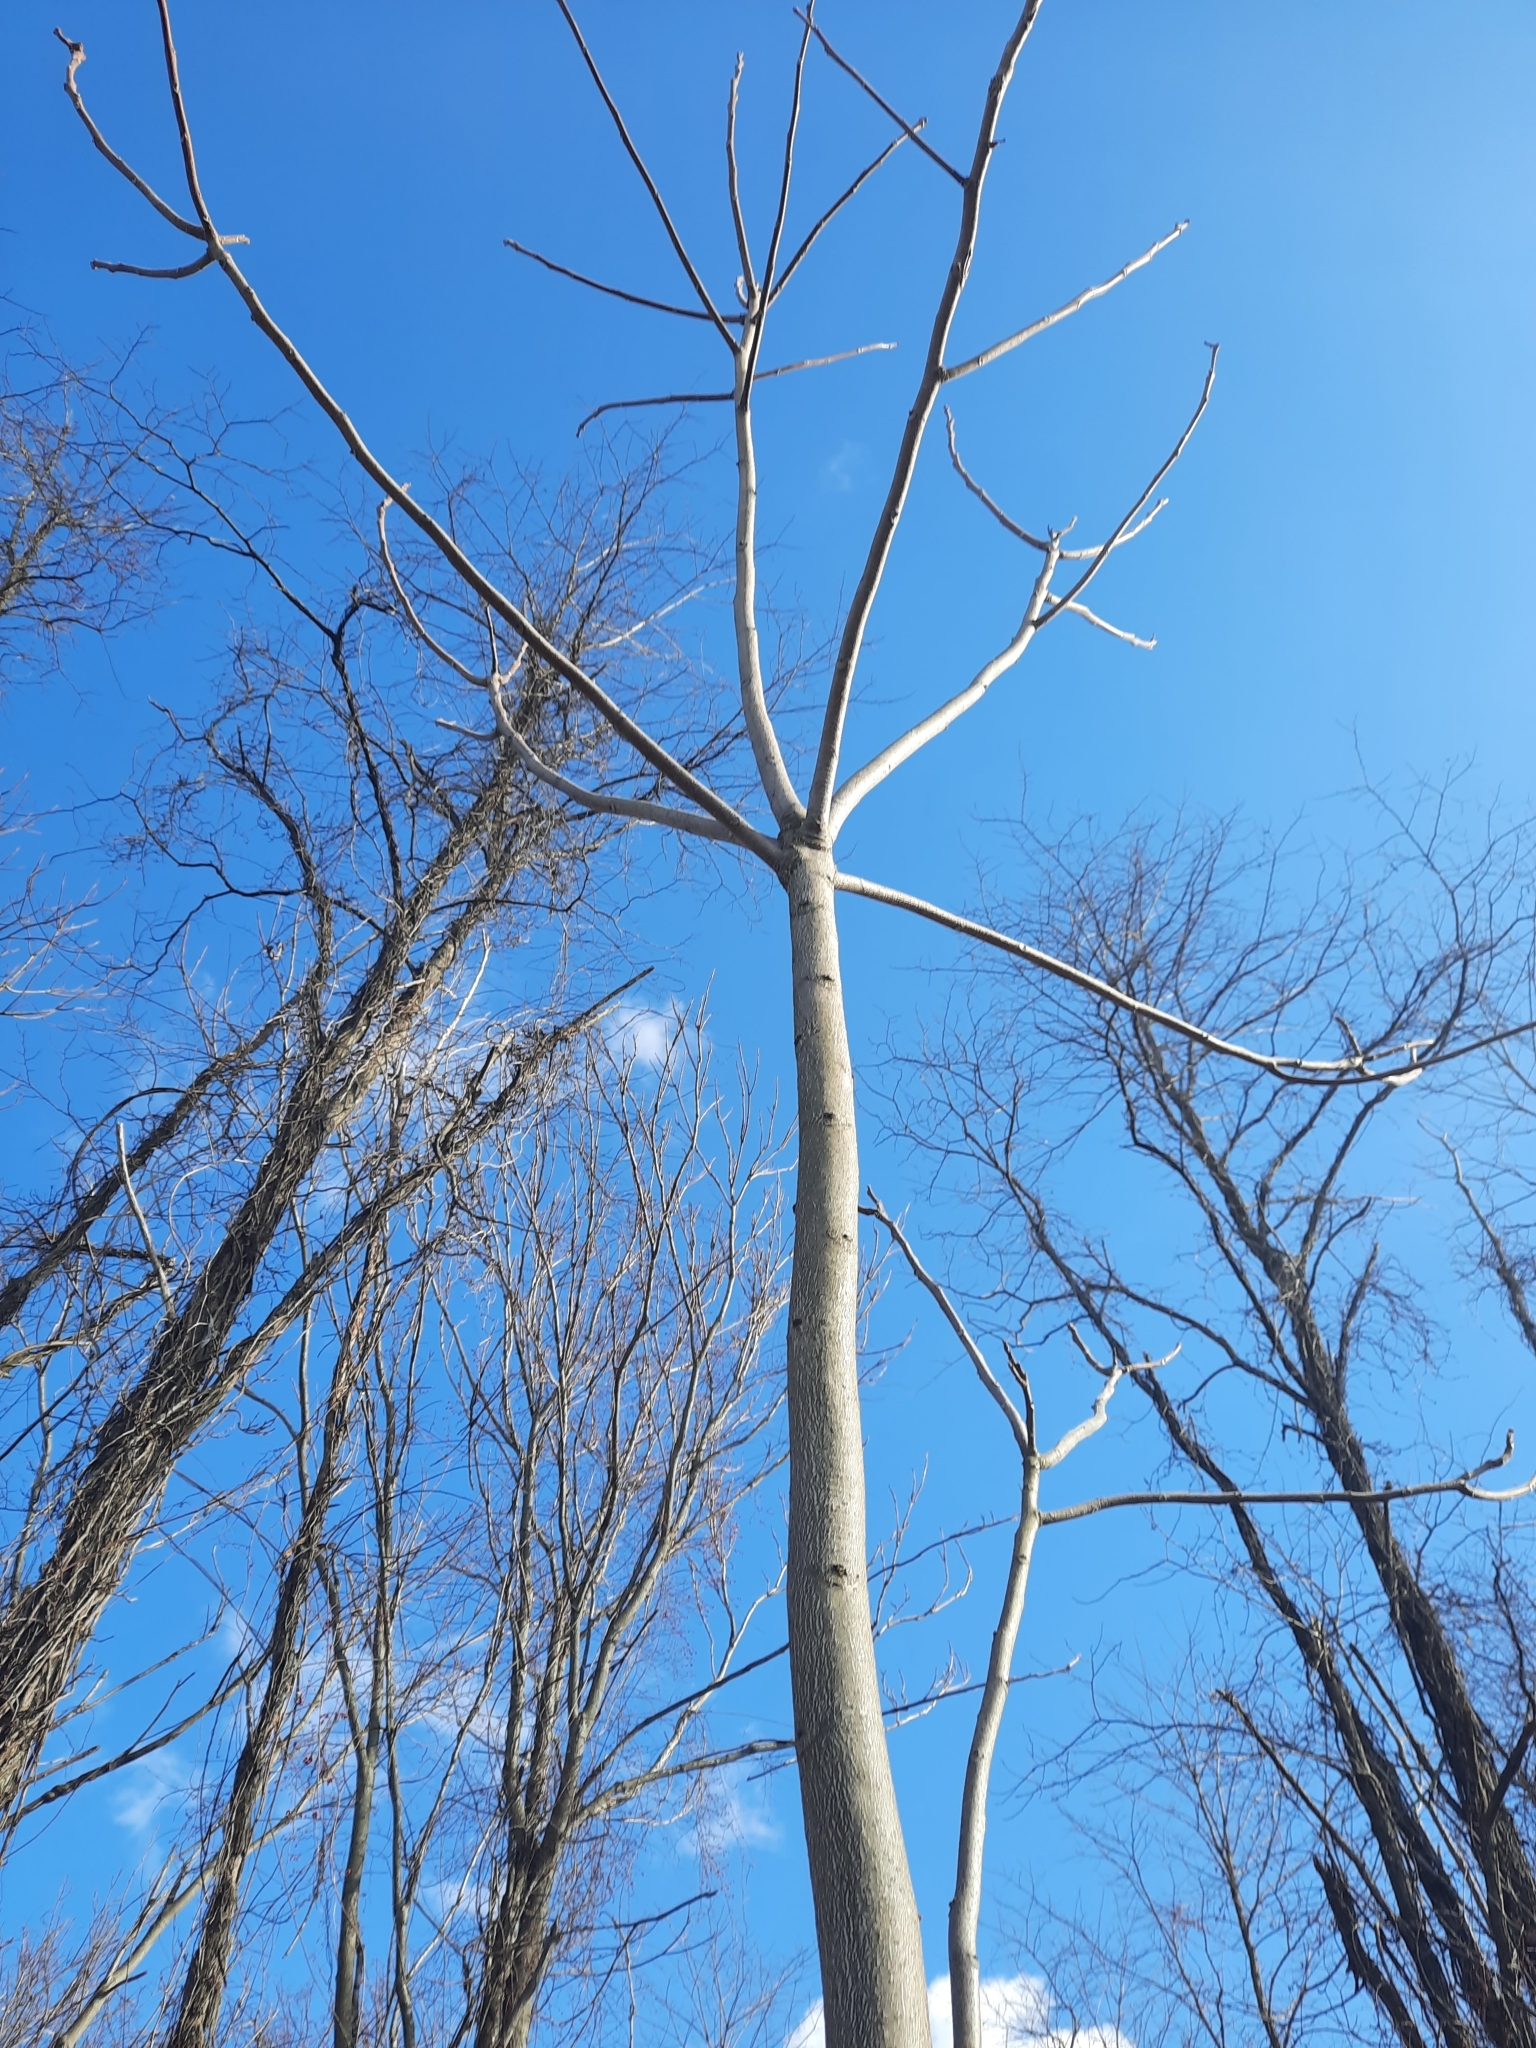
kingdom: Plantae
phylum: Tracheophyta
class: Magnoliopsida
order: Sapindales
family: Simaroubaceae
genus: Ailanthus
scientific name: Ailanthus altissima
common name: Tree-of-heaven
